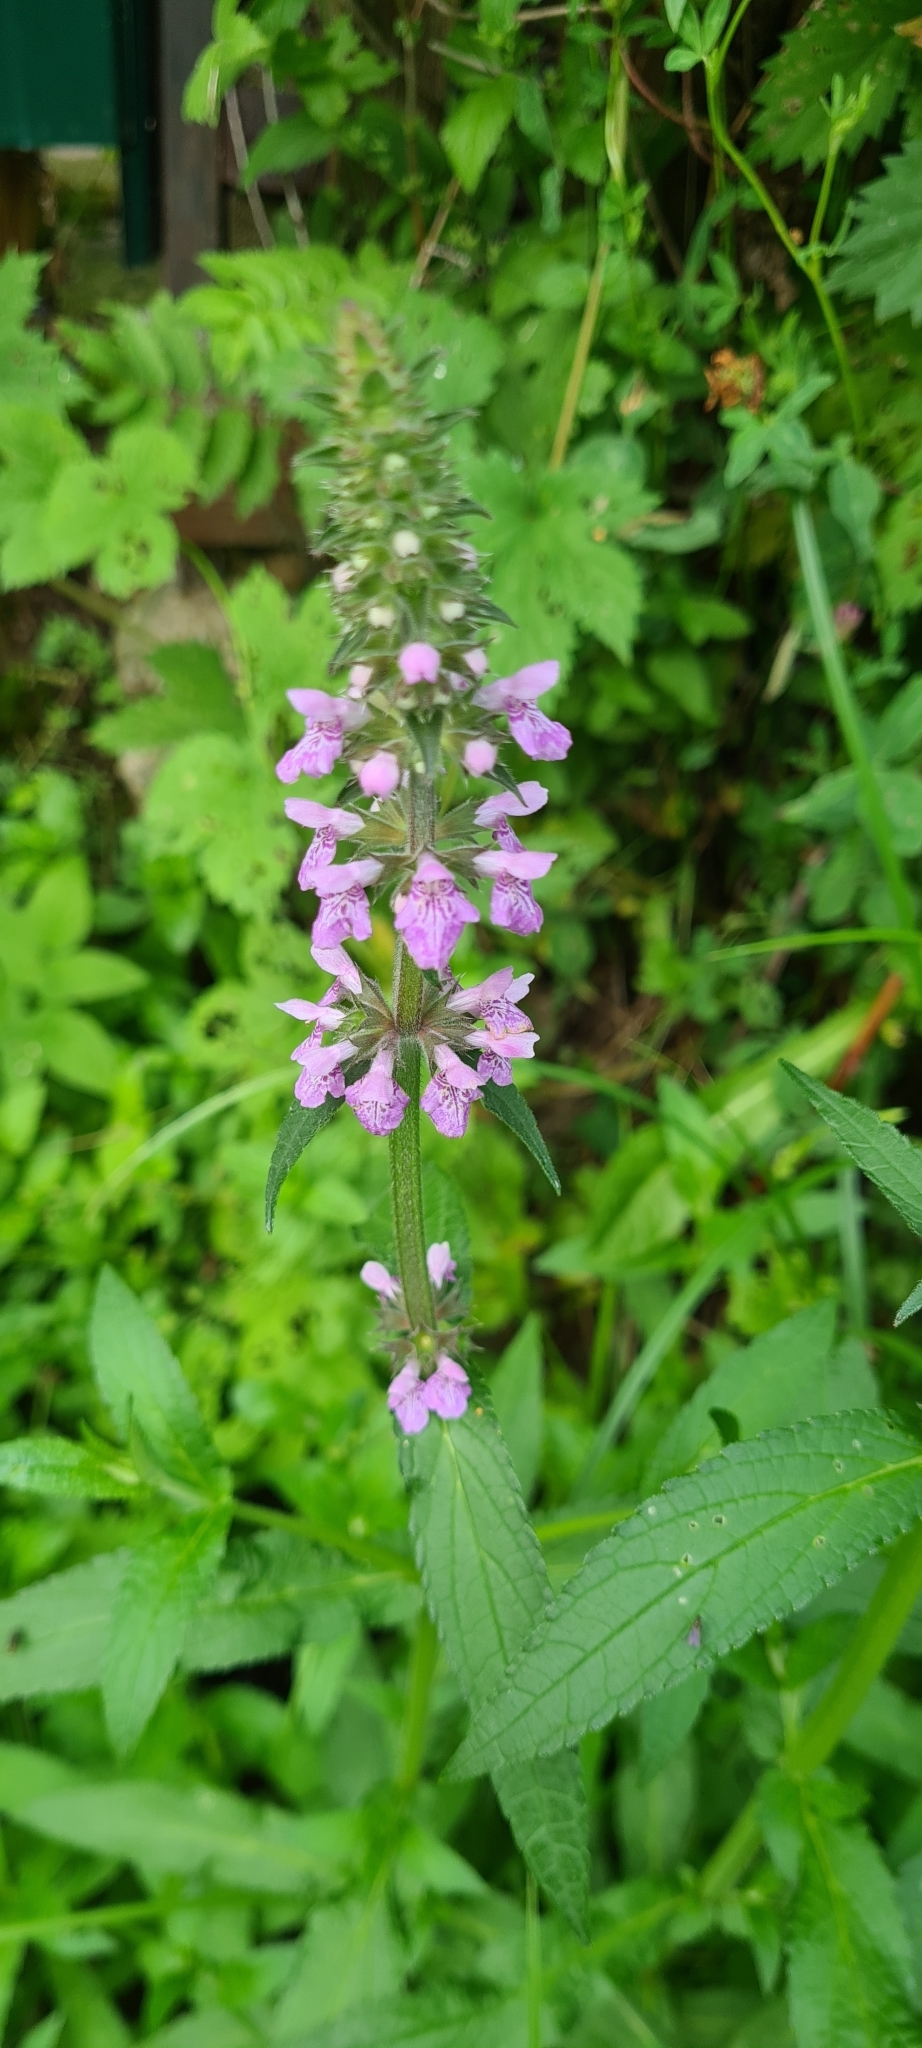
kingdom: Plantae
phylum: Tracheophyta
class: Magnoliopsida
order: Lamiales
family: Lamiaceae
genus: Stachys
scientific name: Stachys palustris
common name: Marsh woundwort
